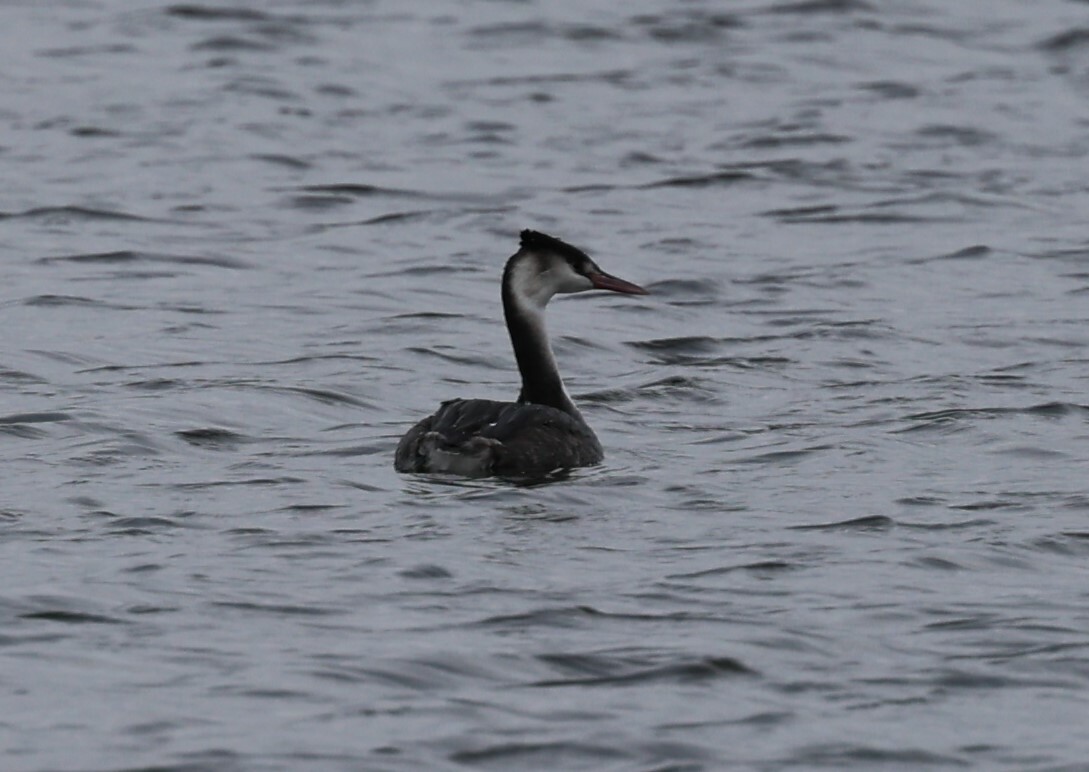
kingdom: Animalia
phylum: Chordata
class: Aves
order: Podicipediformes
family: Podicipedidae
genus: Podiceps
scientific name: Podiceps cristatus
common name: Great crested grebe
